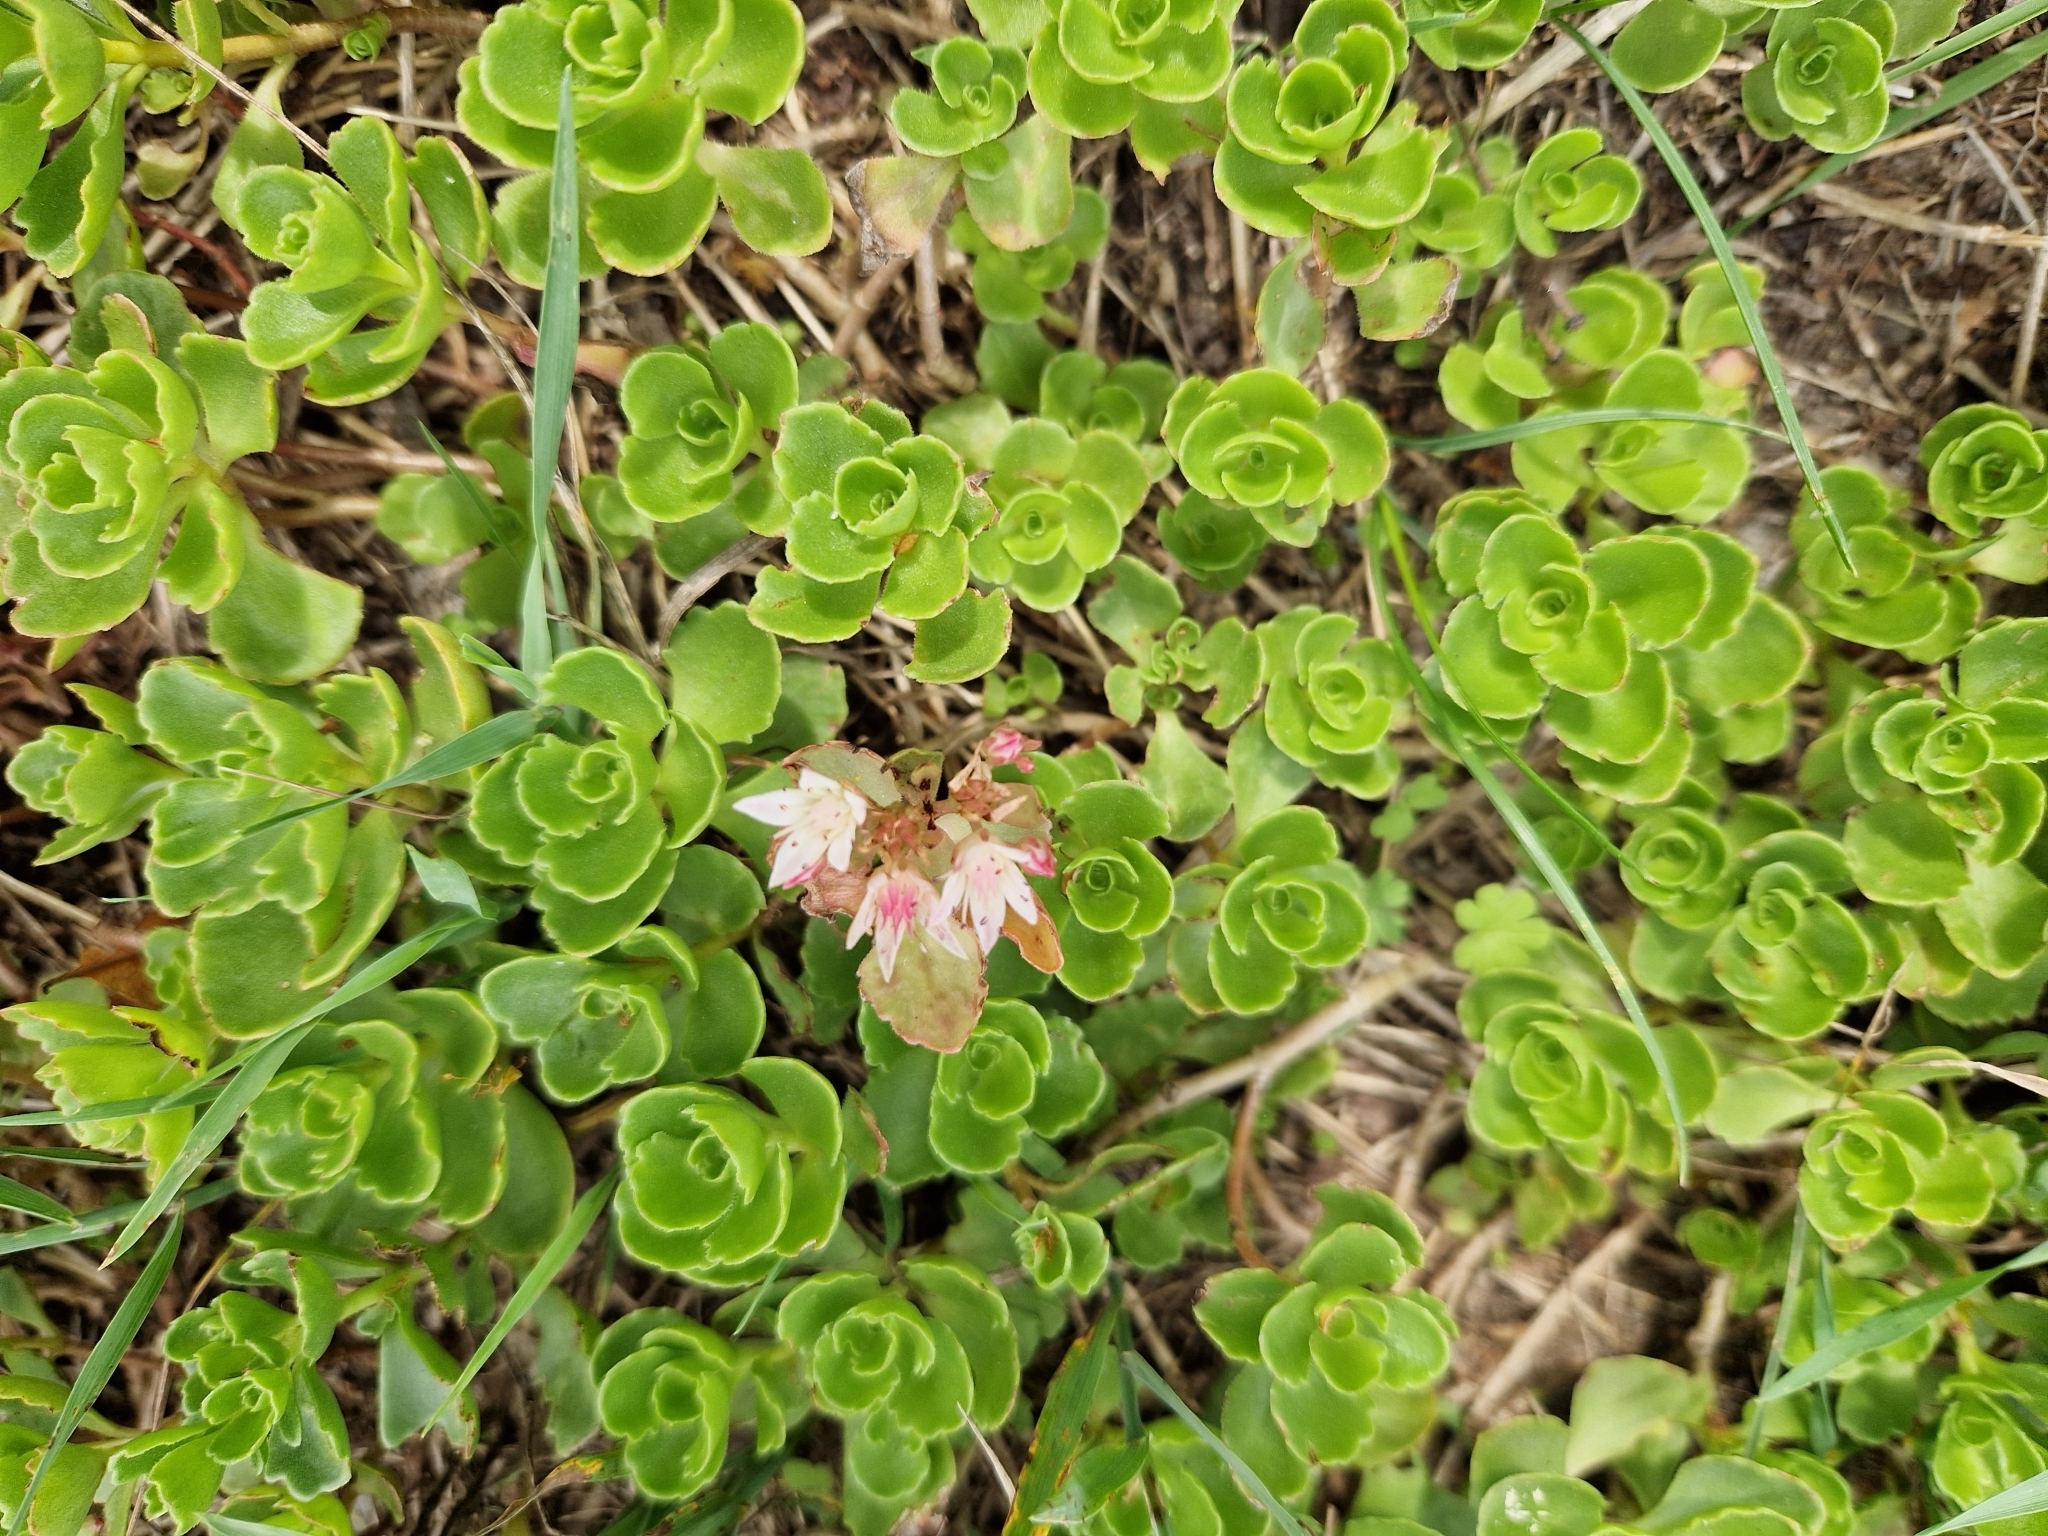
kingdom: Plantae
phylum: Tracheophyta
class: Magnoliopsida
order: Saxifragales
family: Crassulaceae
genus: Phedimus
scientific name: Phedimus spurius
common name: Caucasian stonecrop
